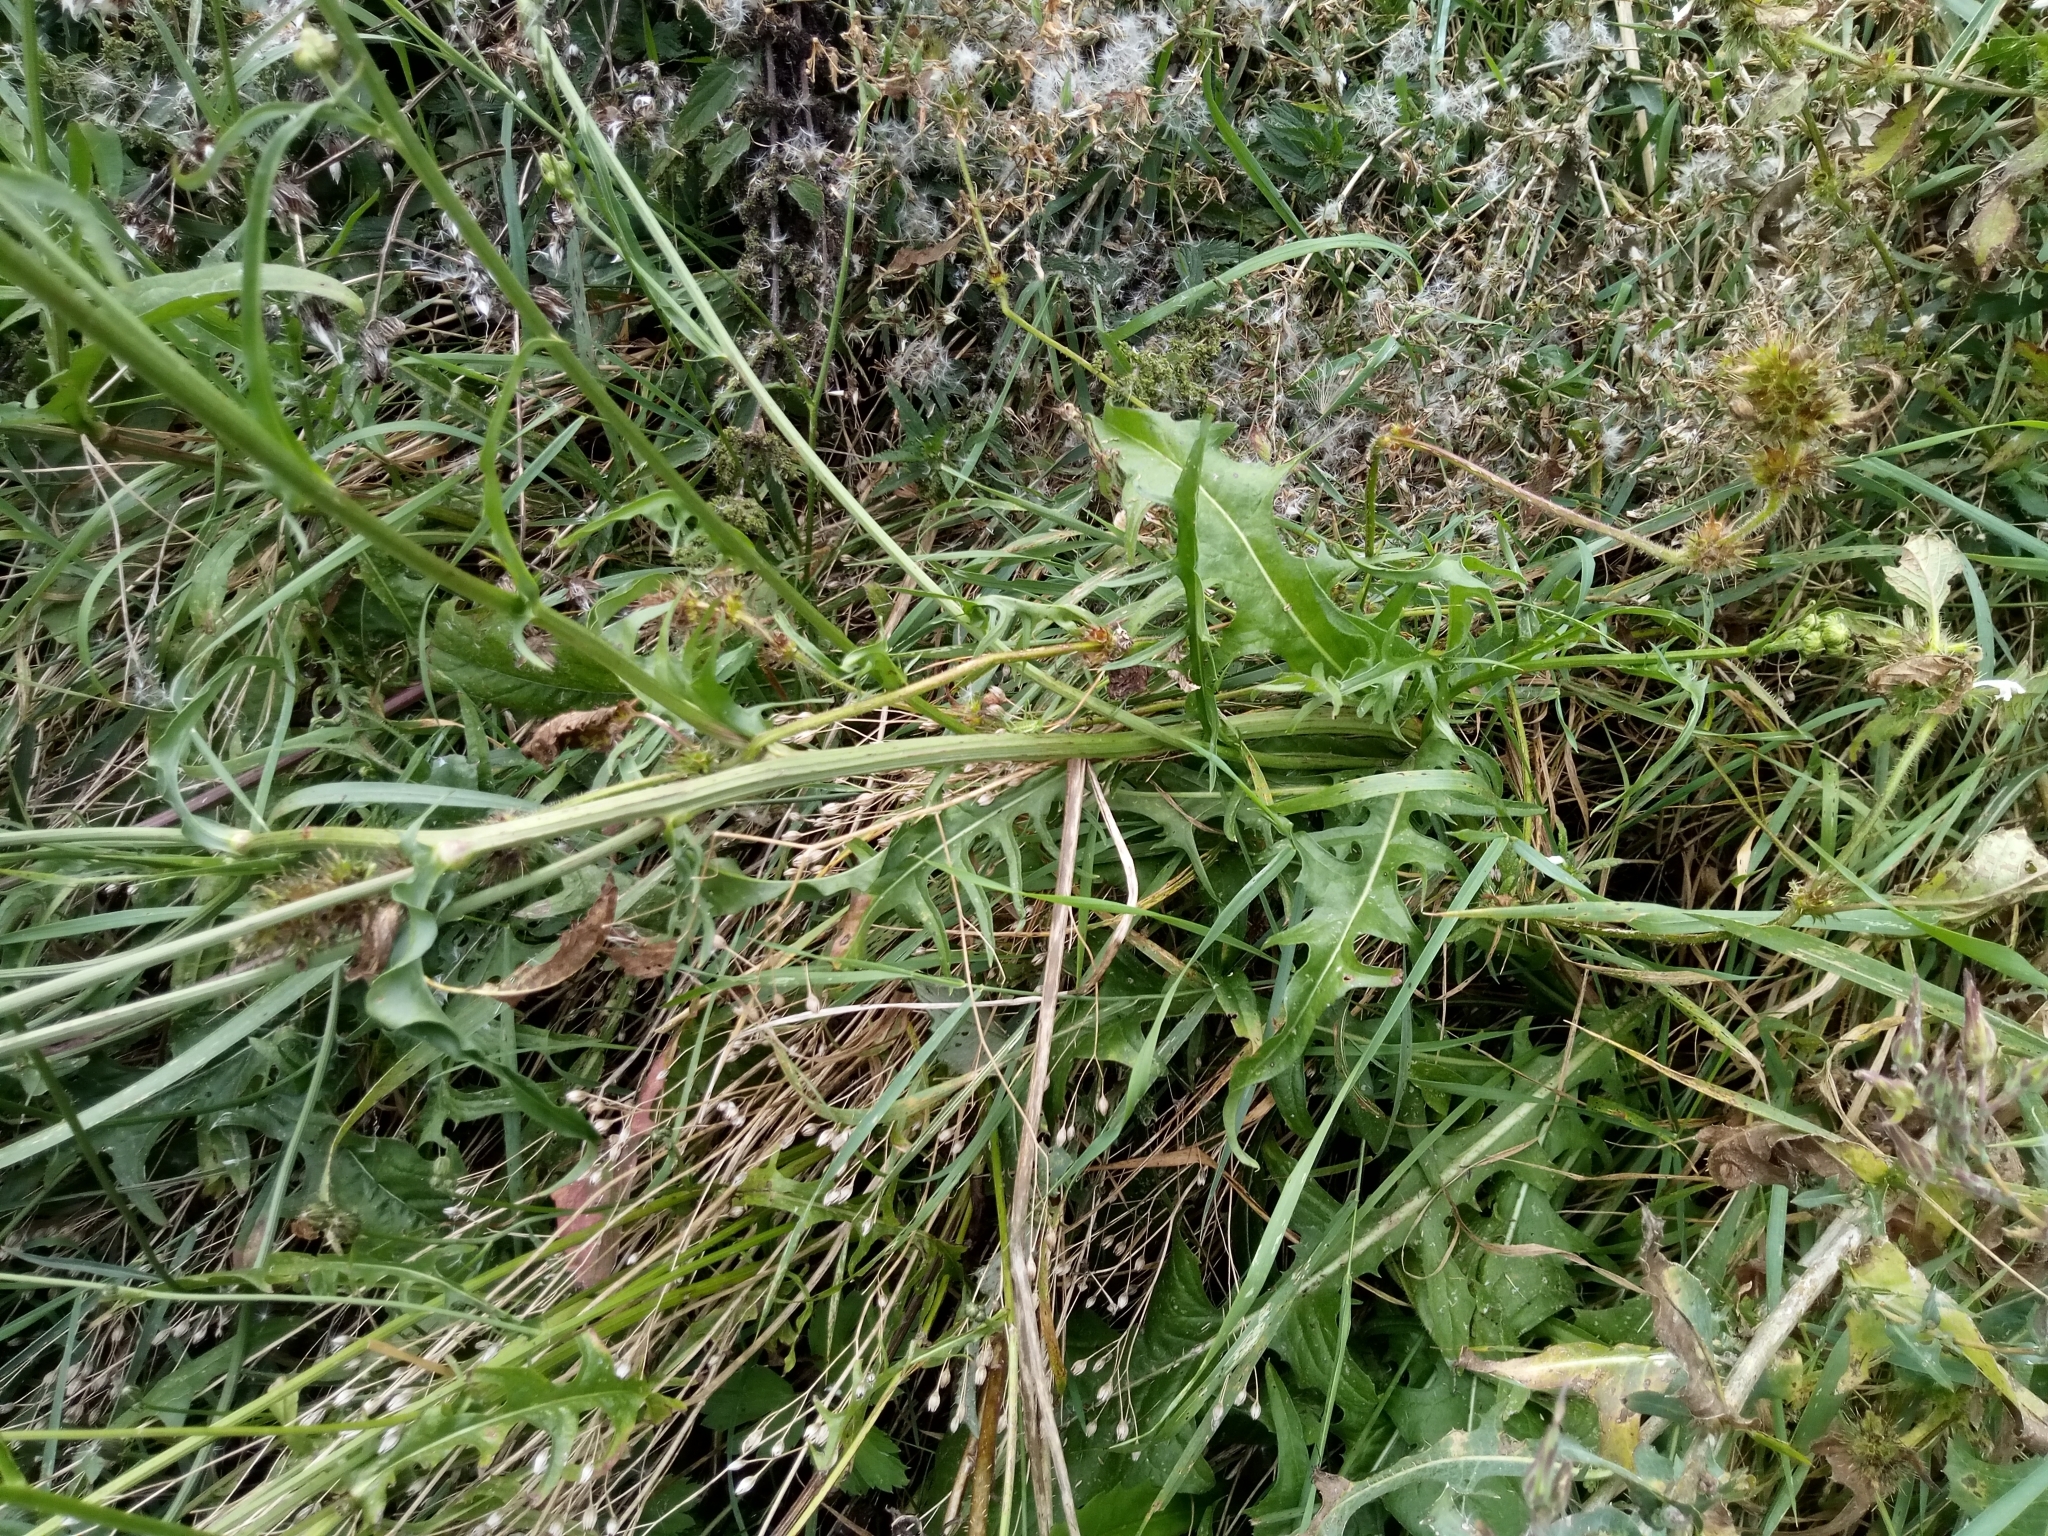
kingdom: Plantae
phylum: Tracheophyta
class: Magnoliopsida
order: Asterales
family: Asteraceae
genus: Crepis
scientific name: Crepis biennis
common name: Rough hawk's-beard
